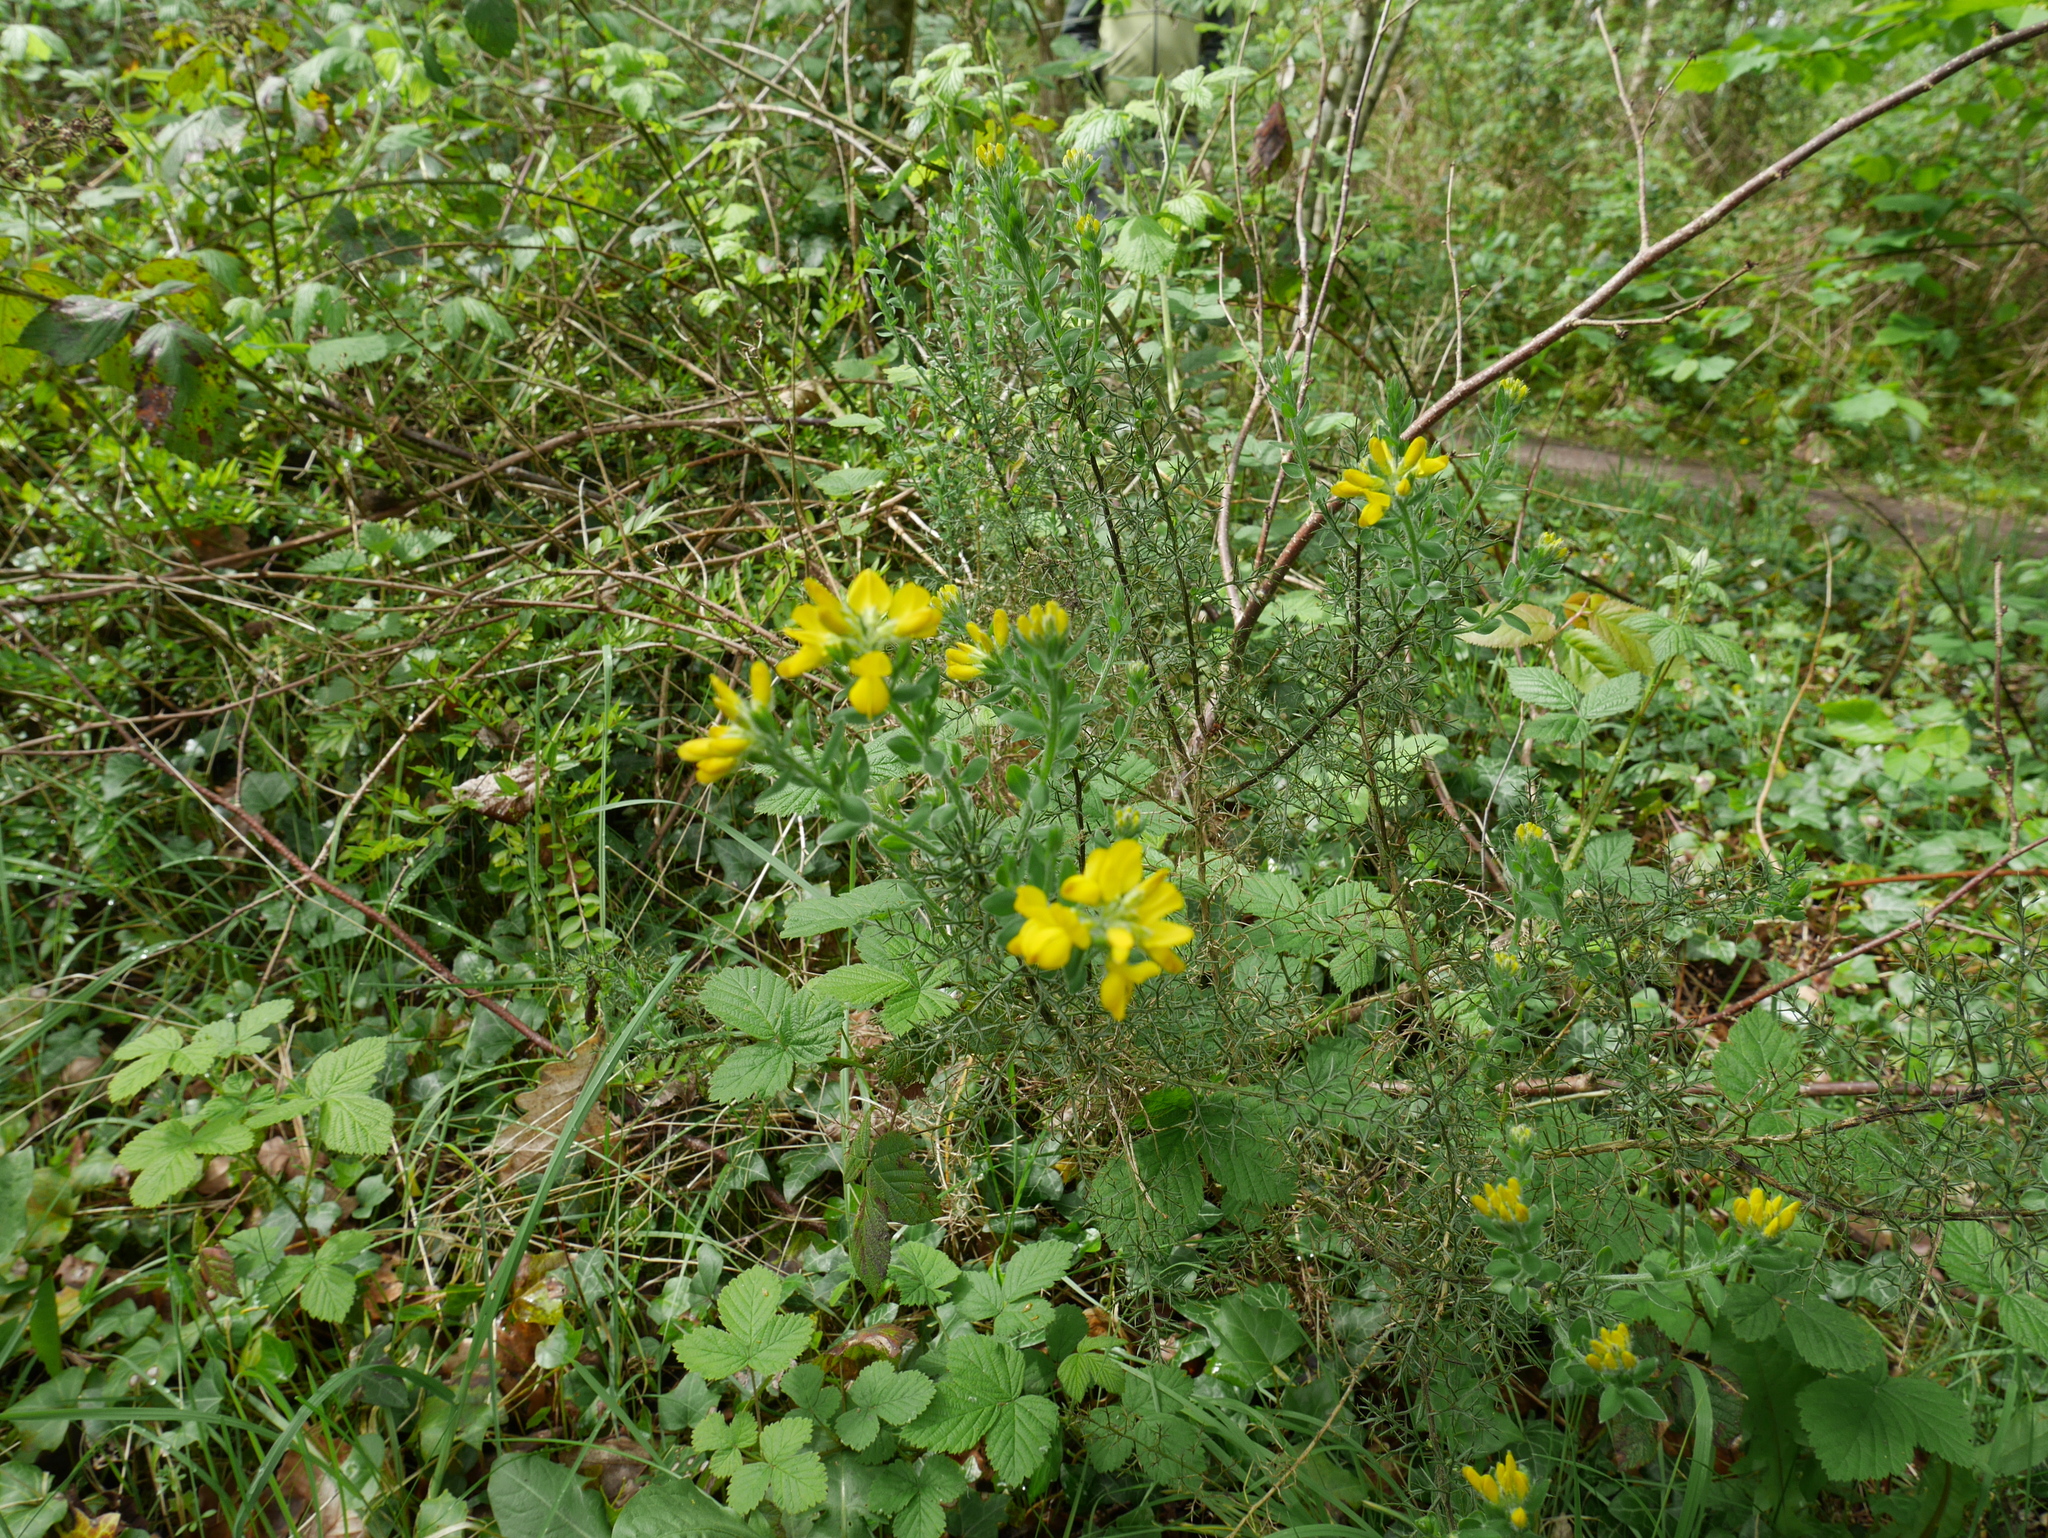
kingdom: Plantae
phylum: Tracheophyta
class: Magnoliopsida
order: Fabales
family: Fabaceae
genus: Genista
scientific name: Genista hispanica
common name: Spanish gorse
